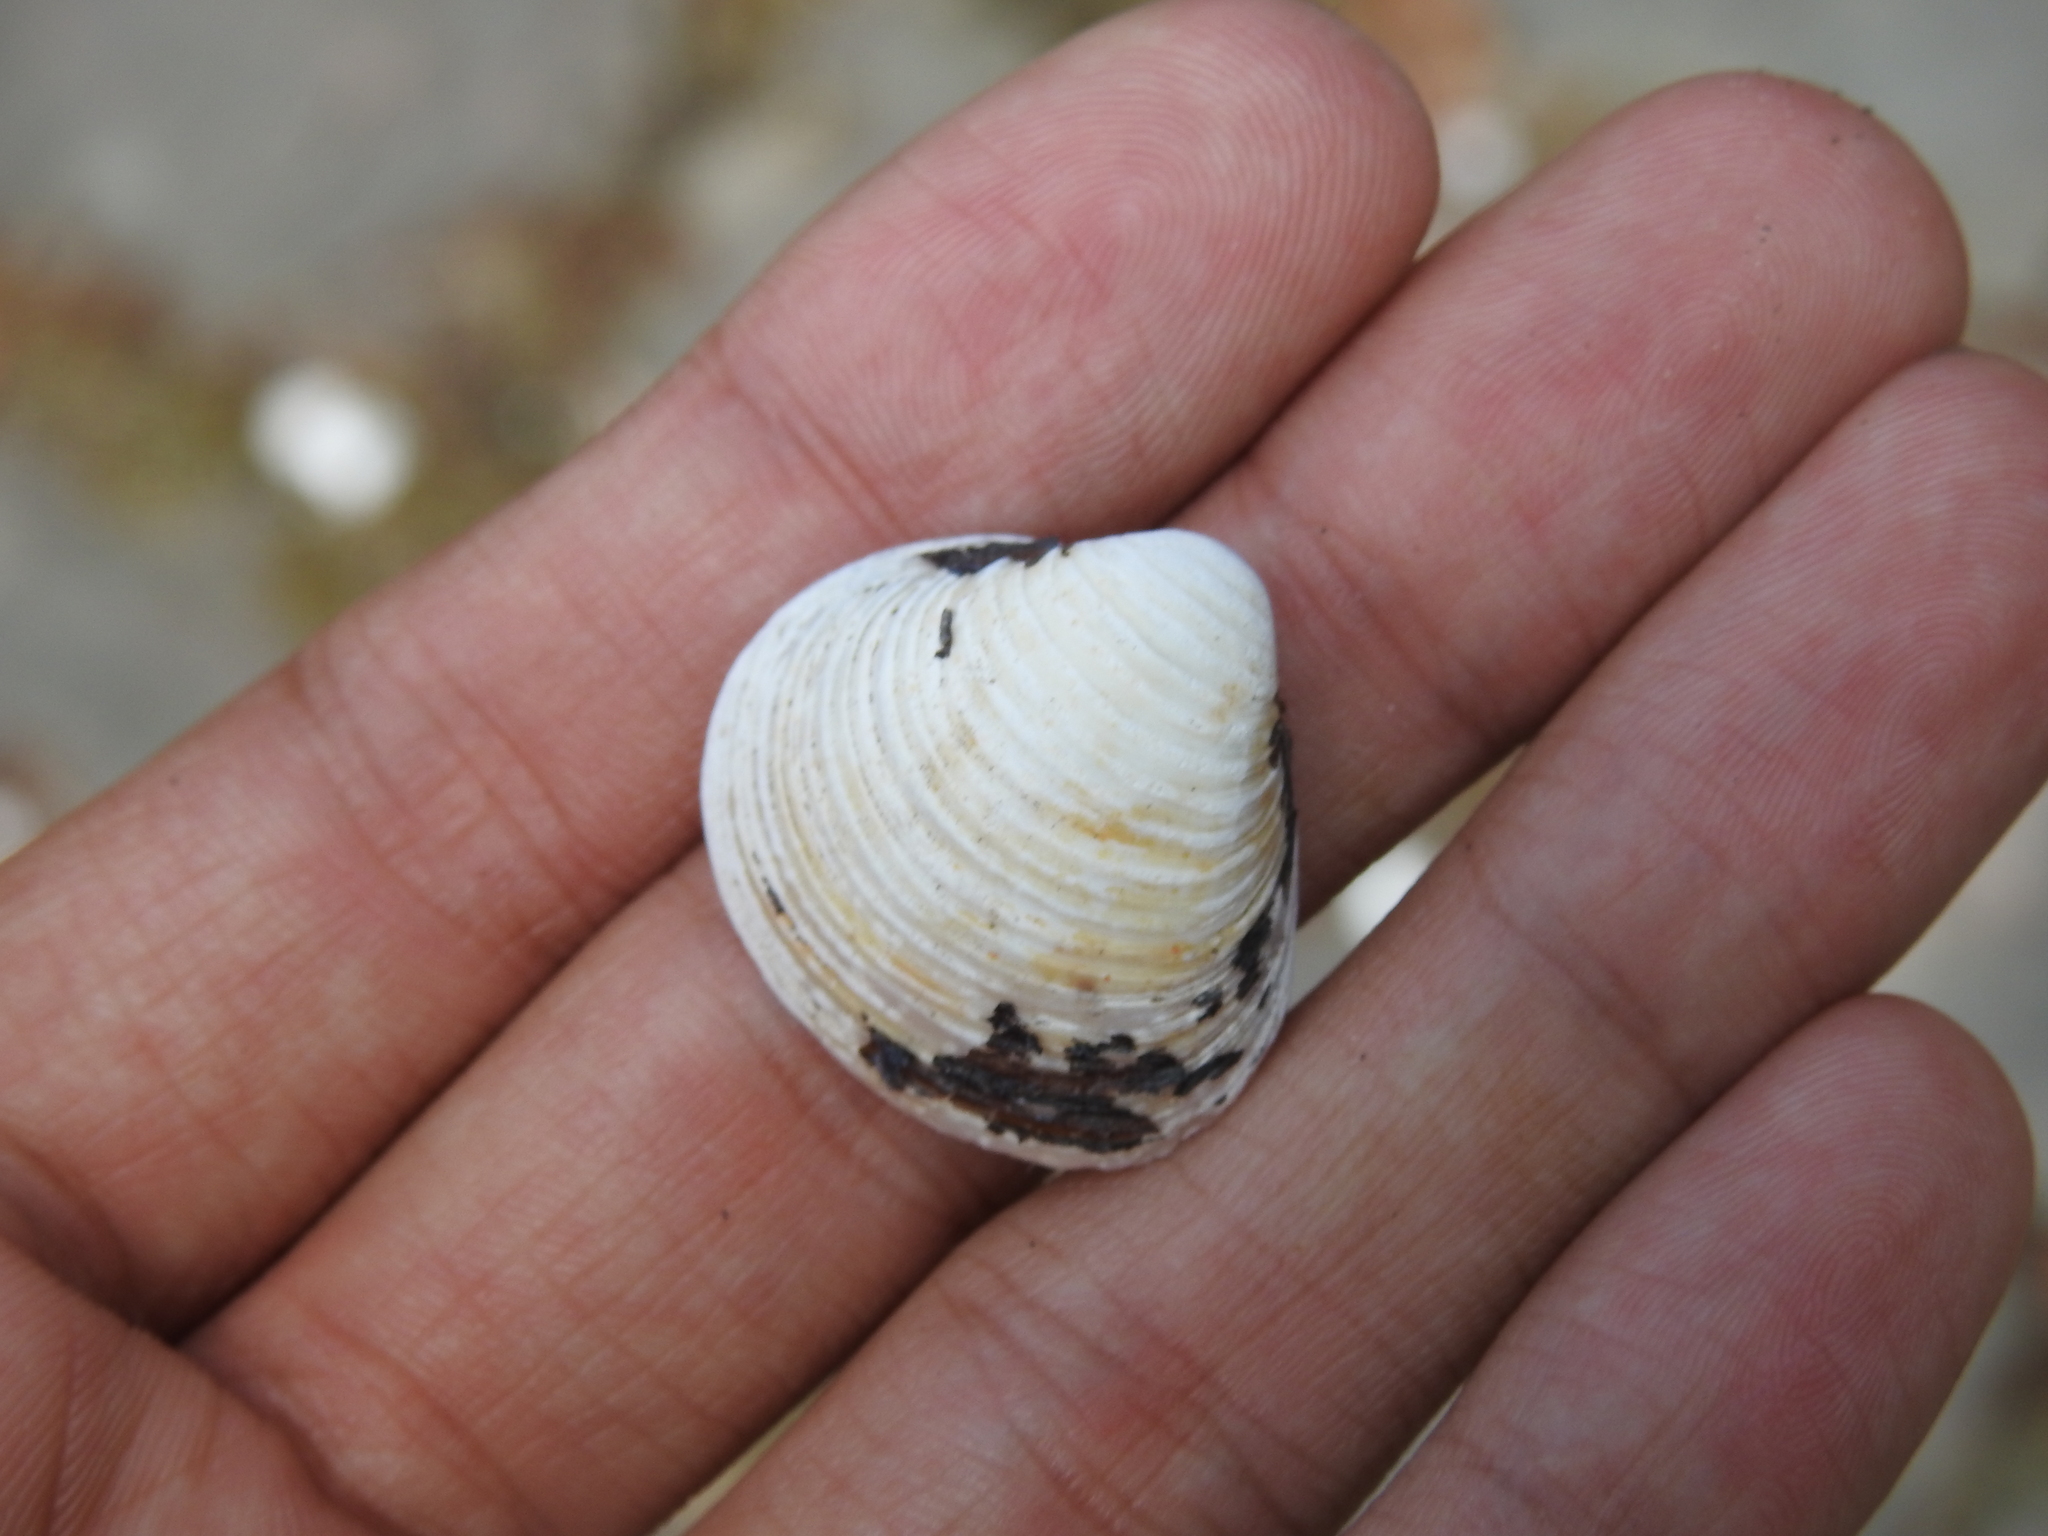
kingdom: Animalia
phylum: Mollusca
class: Bivalvia
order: Venerida
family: Cyrenidae
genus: Corbicula
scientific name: Corbicula fluminea
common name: Asian clam
